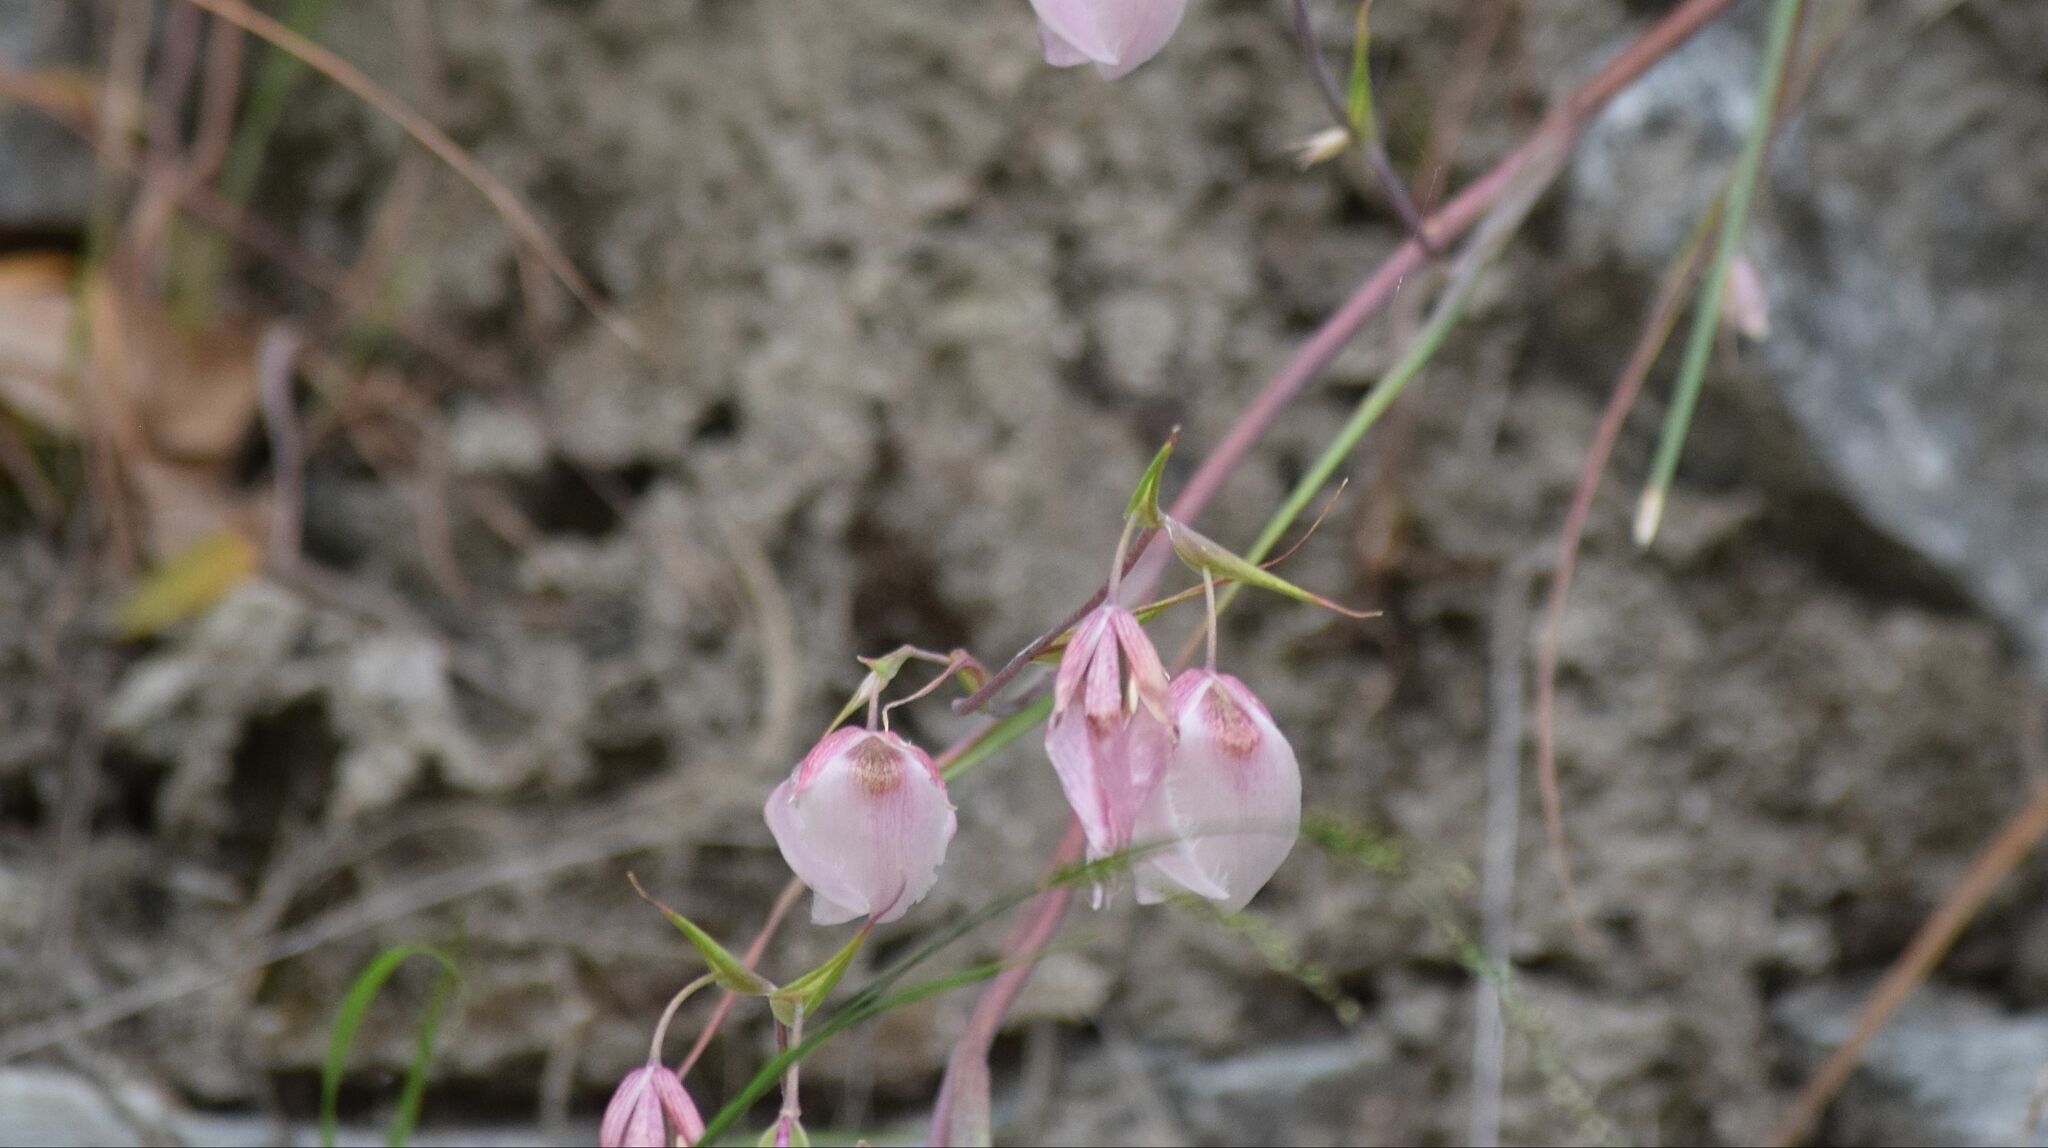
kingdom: Plantae
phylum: Tracheophyta
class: Liliopsida
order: Liliales
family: Liliaceae
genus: Calochortus
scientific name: Calochortus albus
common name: Fairy-lantern
